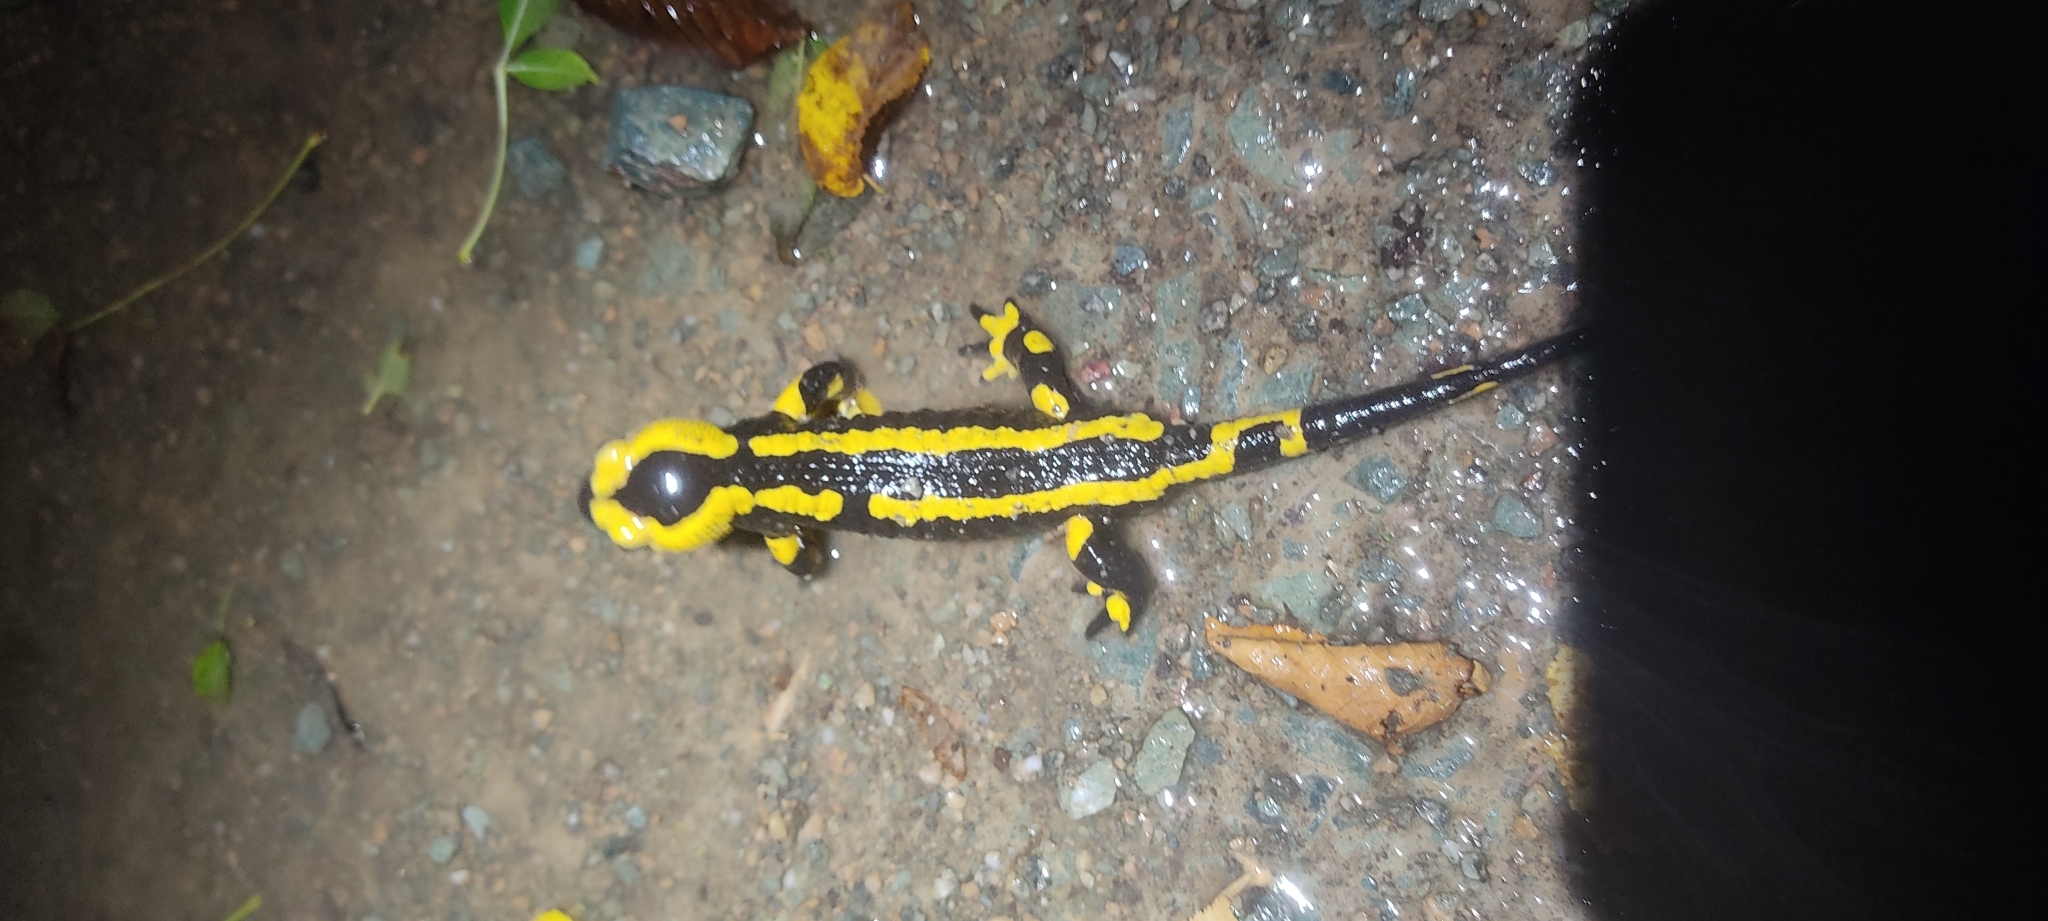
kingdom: Animalia
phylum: Chordata
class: Amphibia
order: Caudata
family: Salamandridae
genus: Salamandra
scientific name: Salamandra salamandra
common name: Fire salamander
